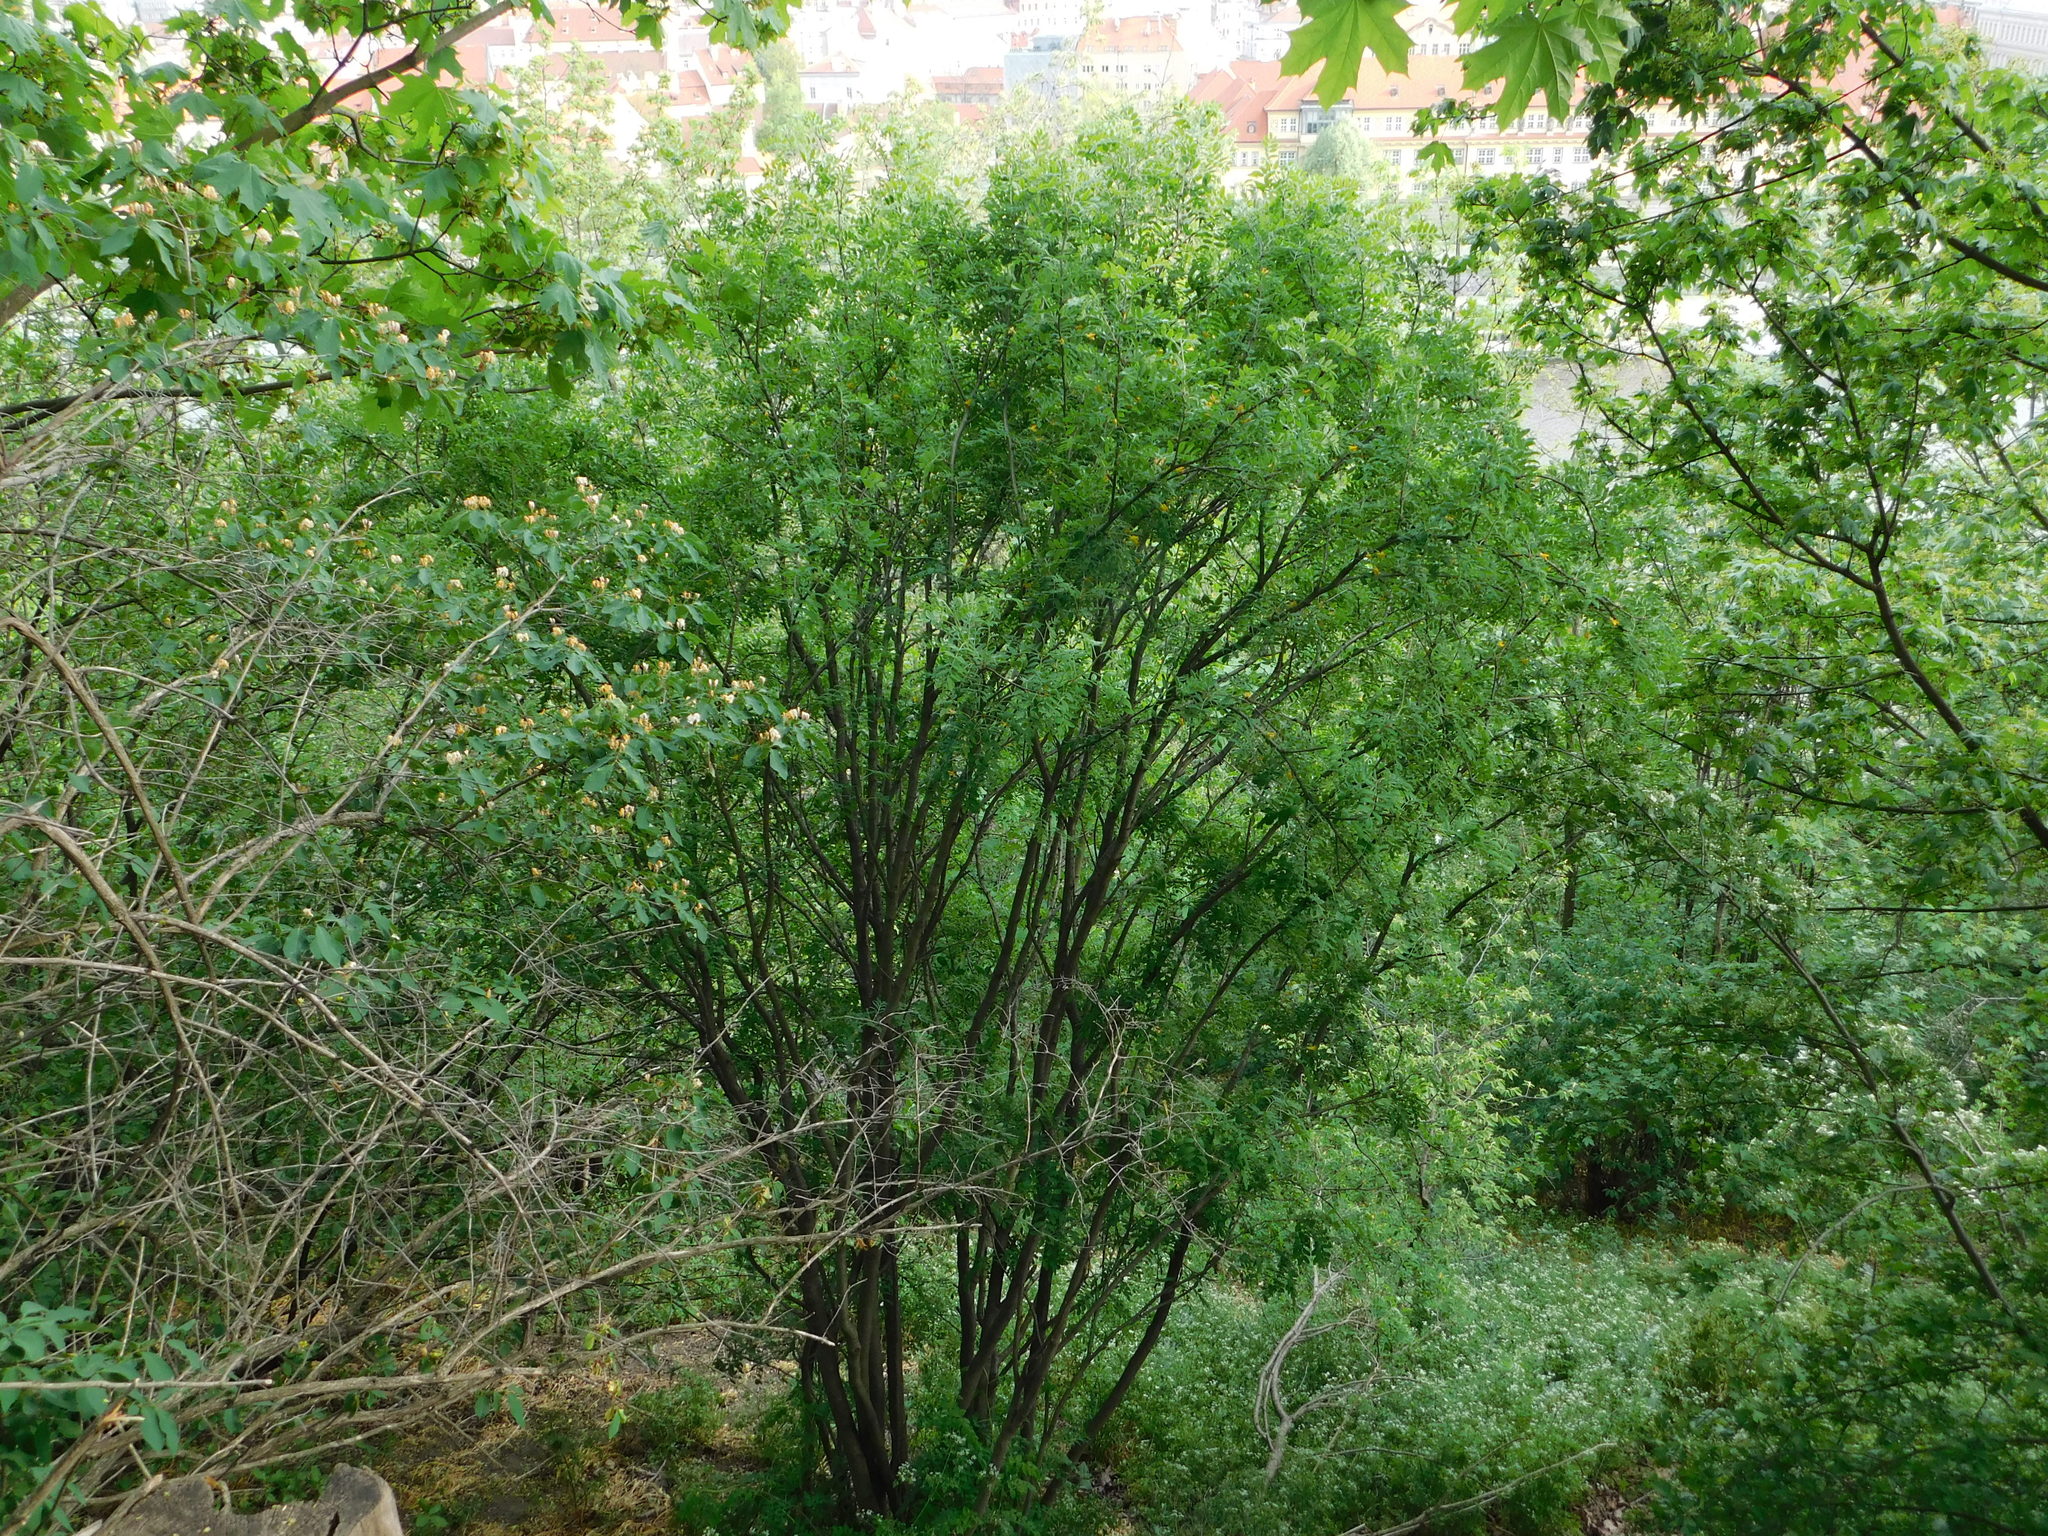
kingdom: Plantae
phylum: Tracheophyta
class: Magnoliopsida
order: Fabales
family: Fabaceae
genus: Caragana
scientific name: Caragana arborescens
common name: Siberian peashrub
